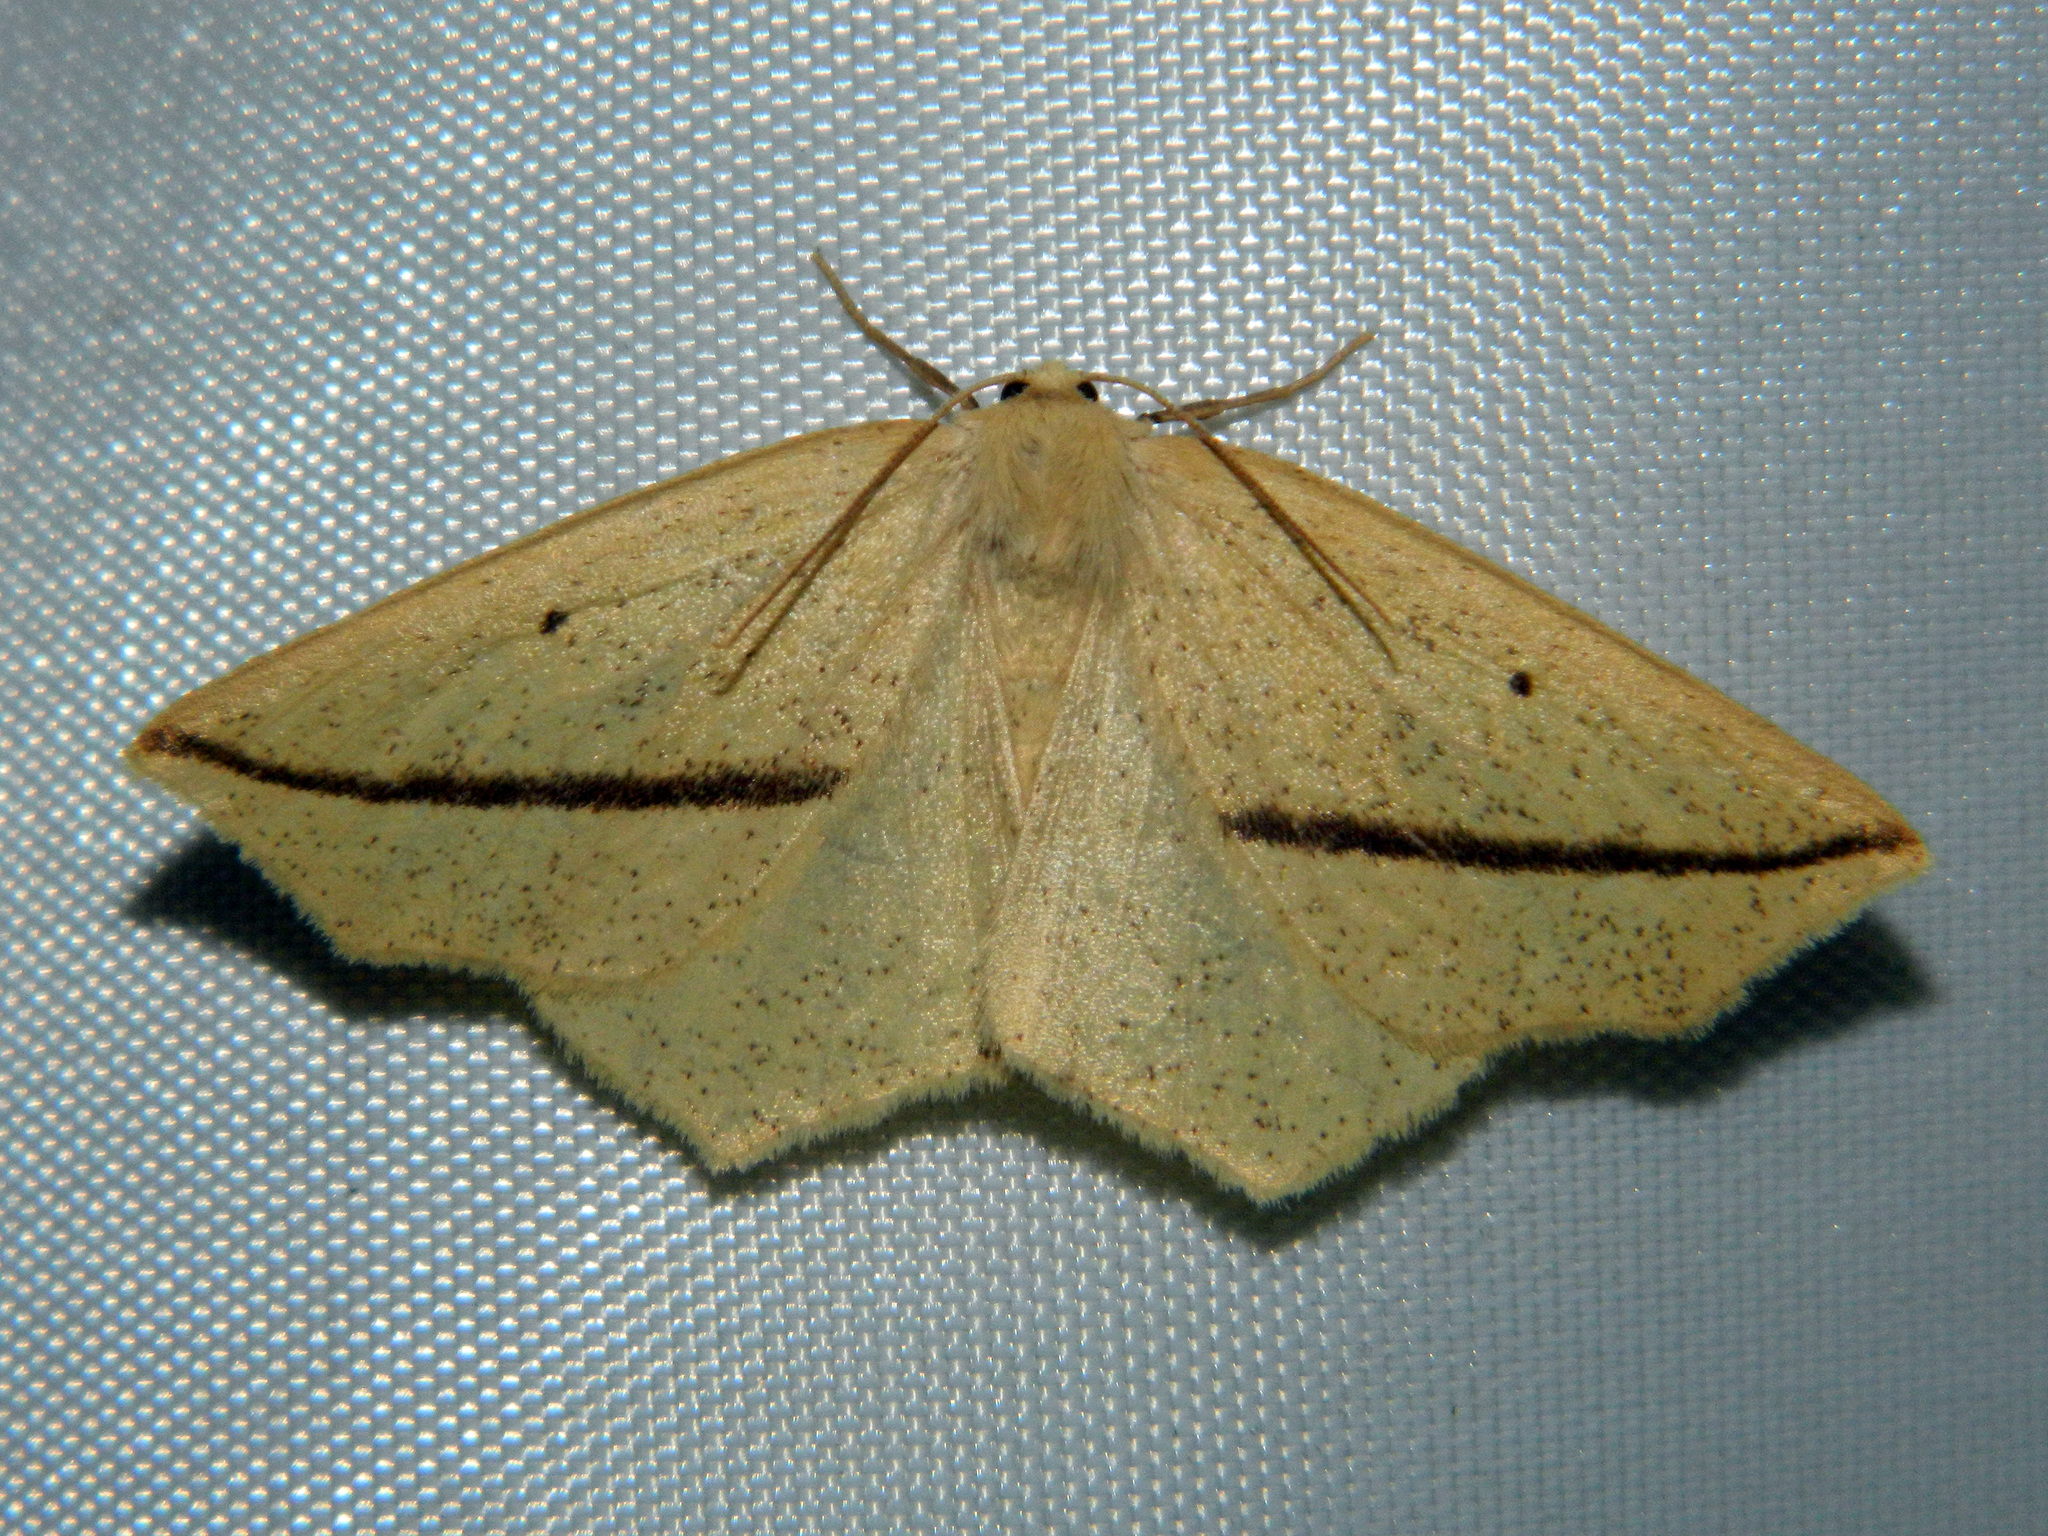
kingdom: Animalia
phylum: Arthropoda
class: Insecta
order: Lepidoptera
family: Geometridae
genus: Tetracis
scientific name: Tetracis crocallata
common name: Yellow slant-line
